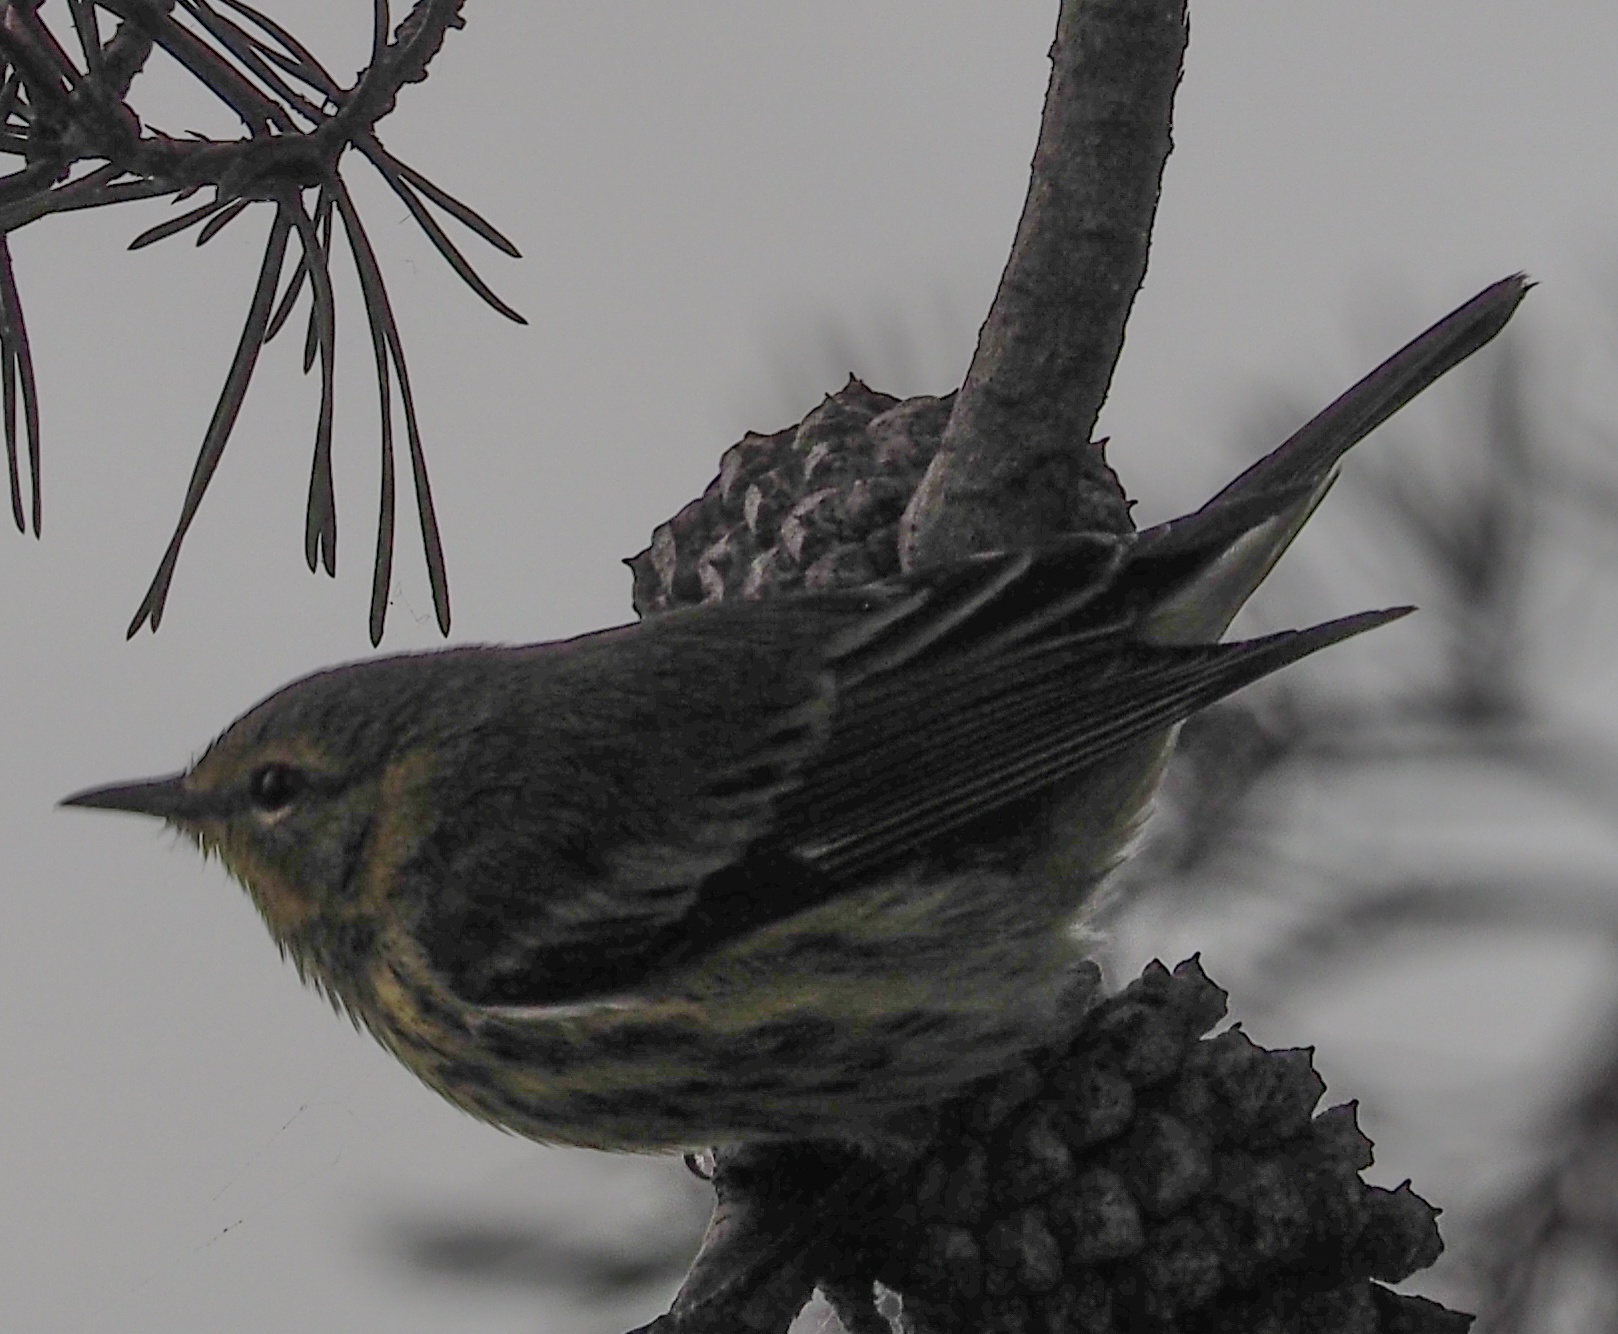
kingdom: Animalia
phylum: Chordata
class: Aves
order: Passeriformes
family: Parulidae
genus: Setophaga
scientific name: Setophaga tigrina
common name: Cape may warbler
